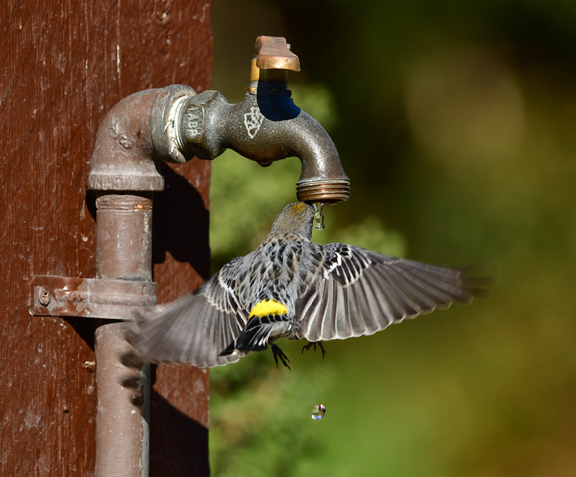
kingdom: Animalia
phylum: Chordata
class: Aves
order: Passeriformes
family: Parulidae
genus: Setophaga
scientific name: Setophaga coronata
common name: Myrtle warbler
